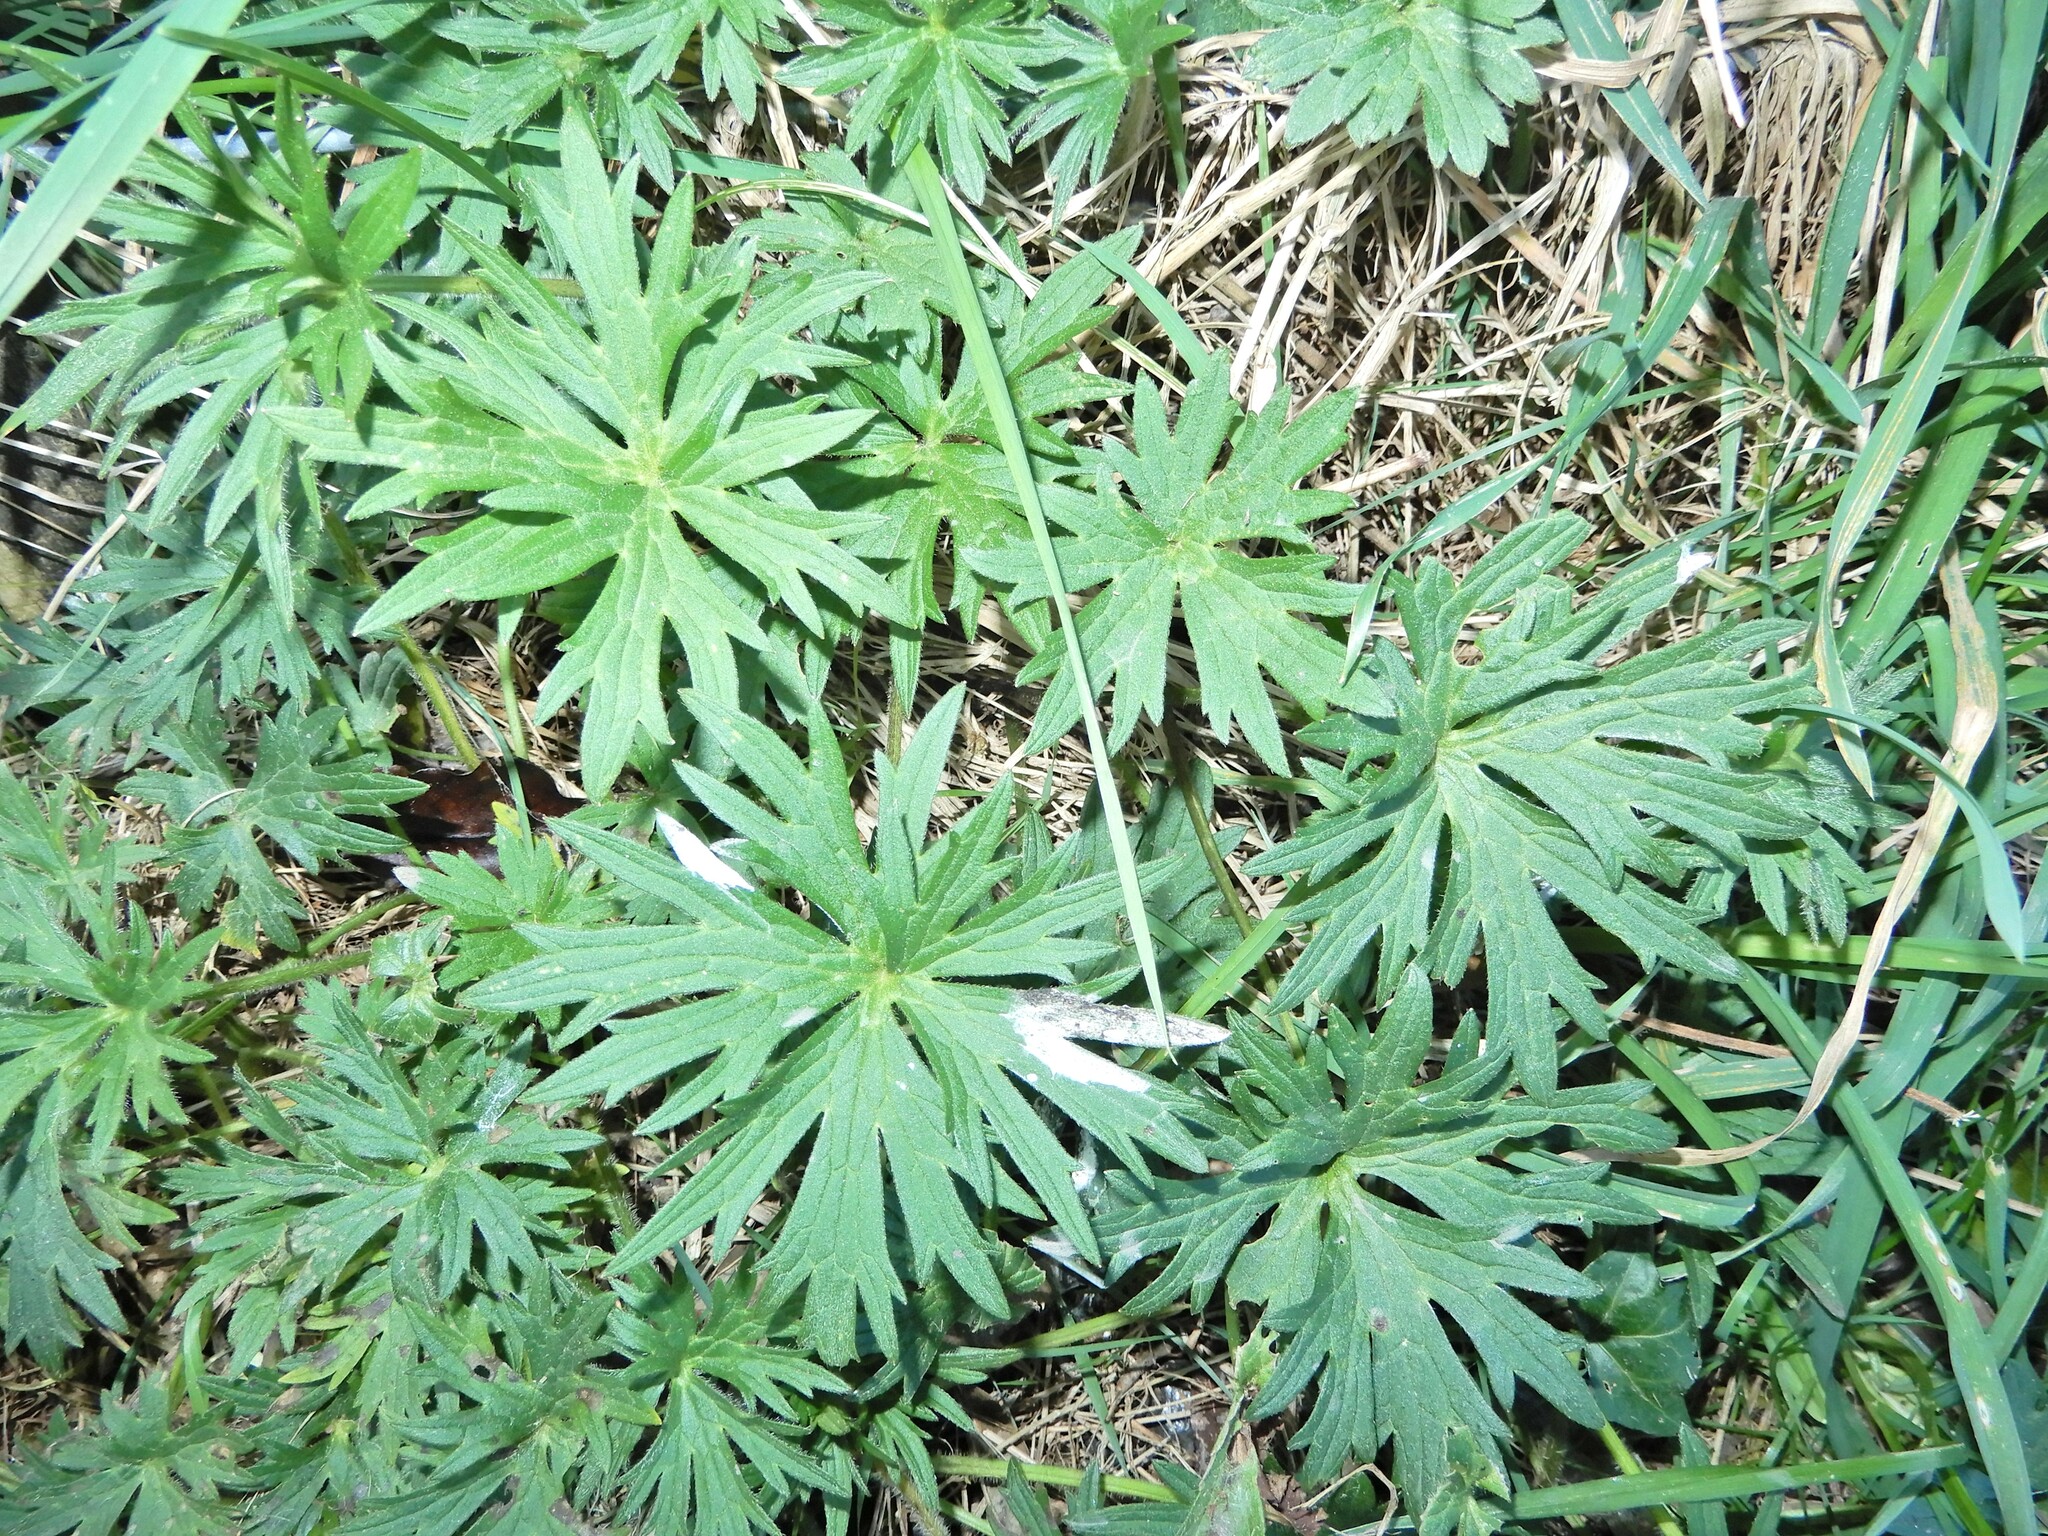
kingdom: Plantae
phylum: Tracheophyta
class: Magnoliopsida
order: Ranunculales
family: Ranunculaceae
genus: Ranunculus
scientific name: Ranunculus acris
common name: Meadow buttercup
